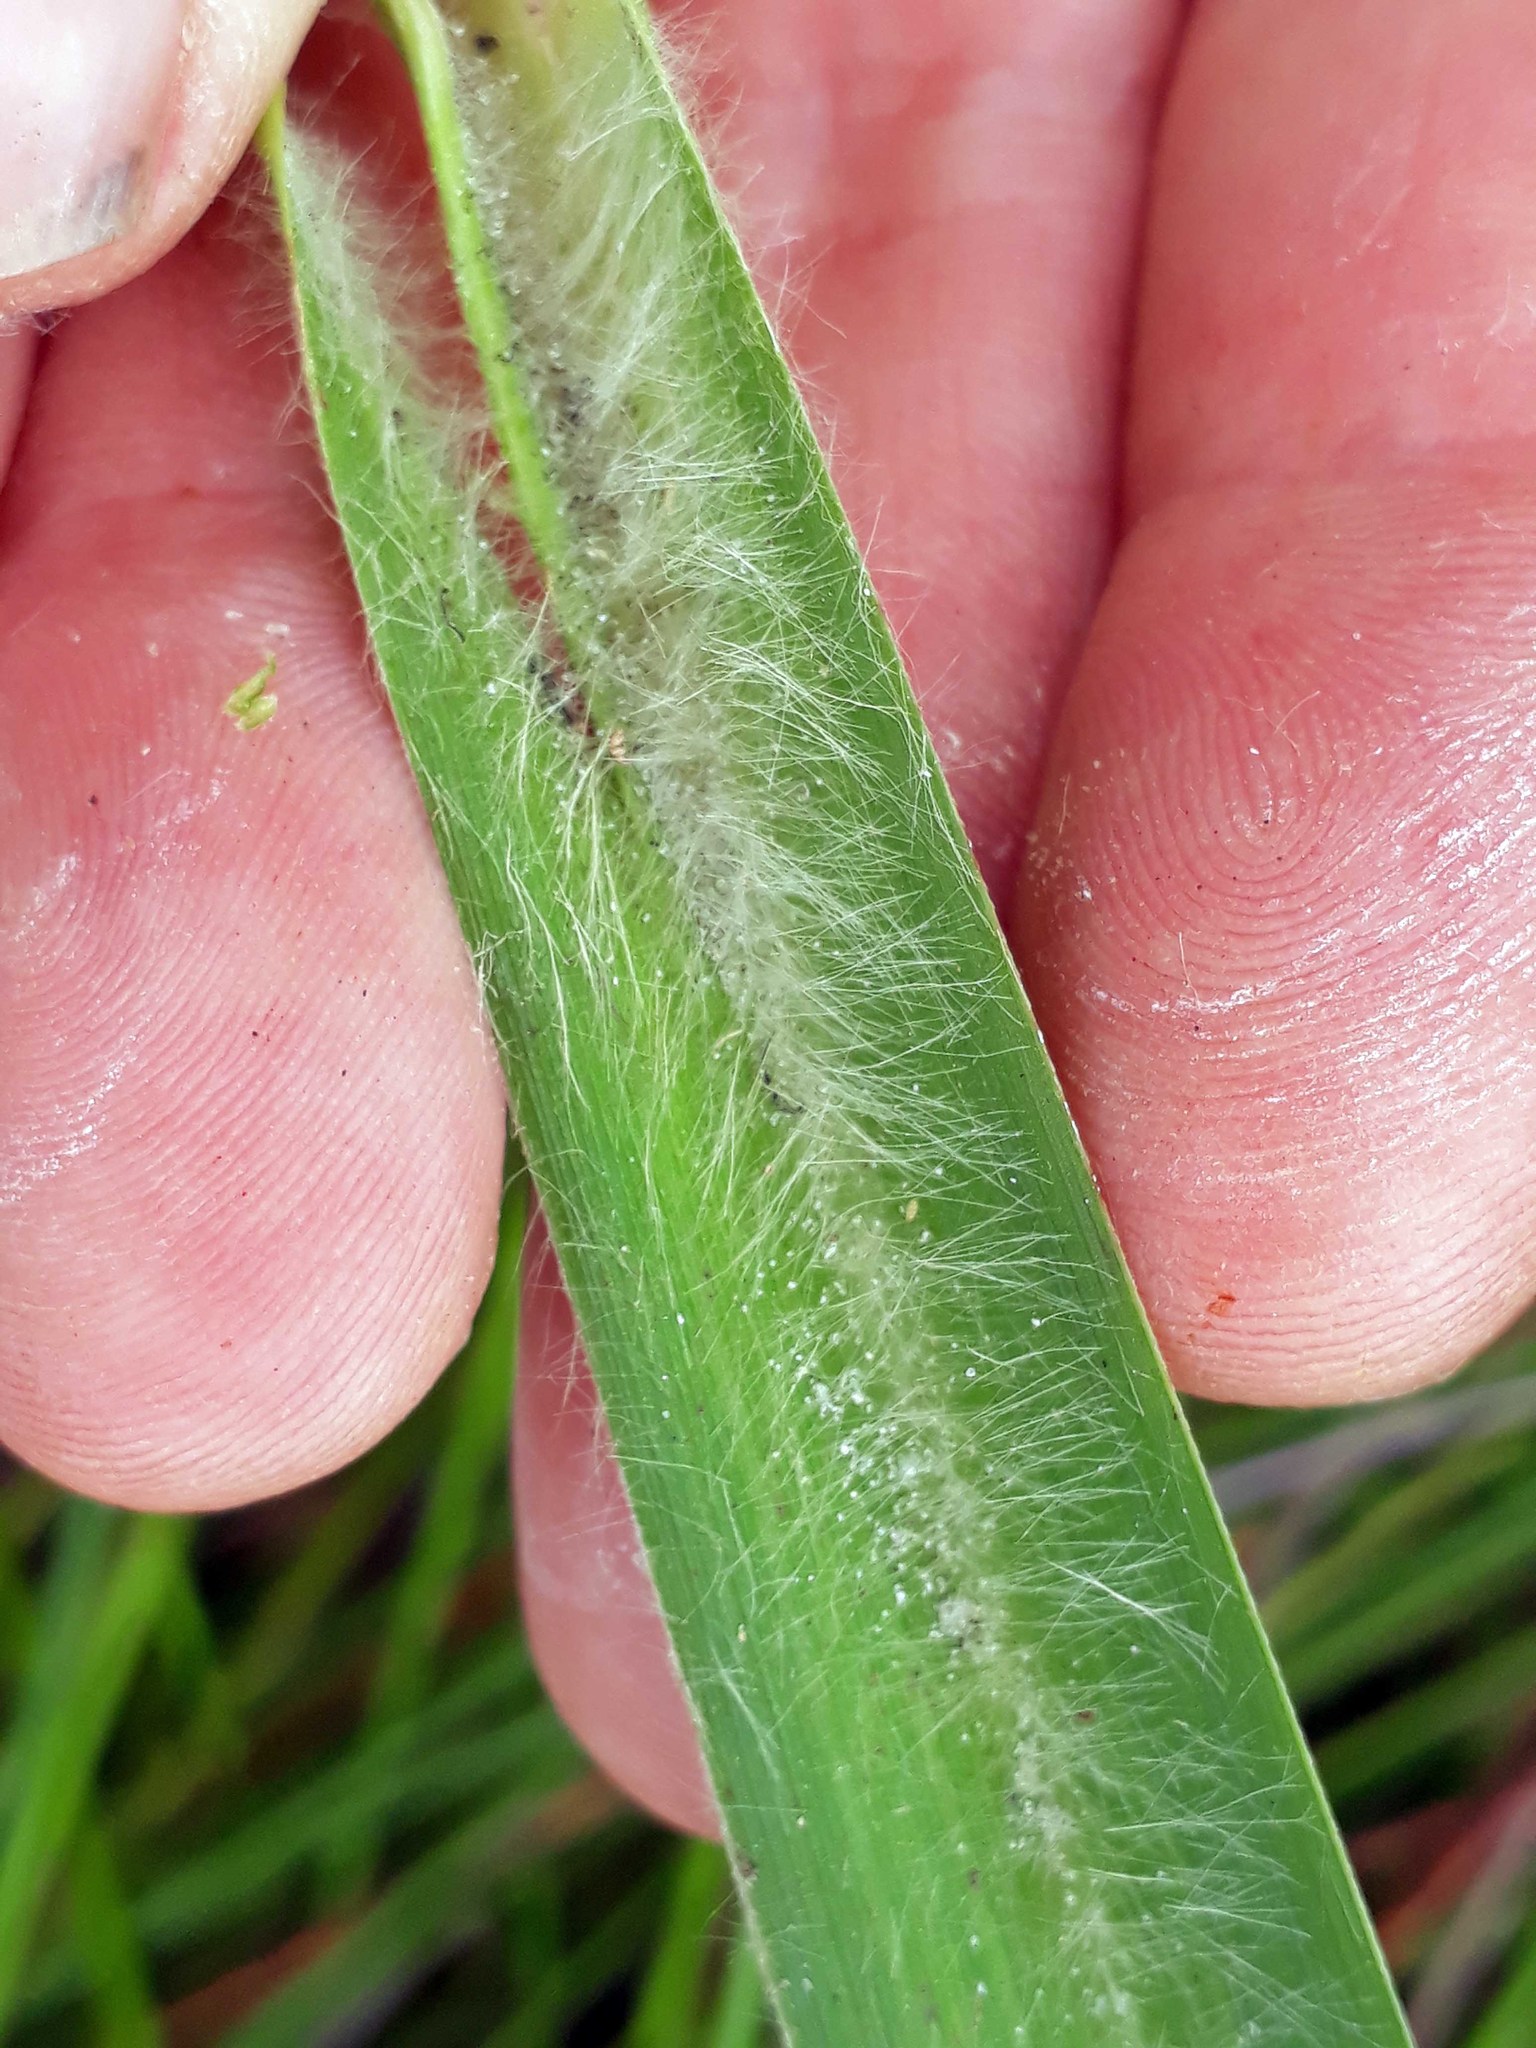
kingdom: Plantae
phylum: Tracheophyta
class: Liliopsida
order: Poales
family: Poaceae
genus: Austroderia
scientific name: Austroderia turbaria
